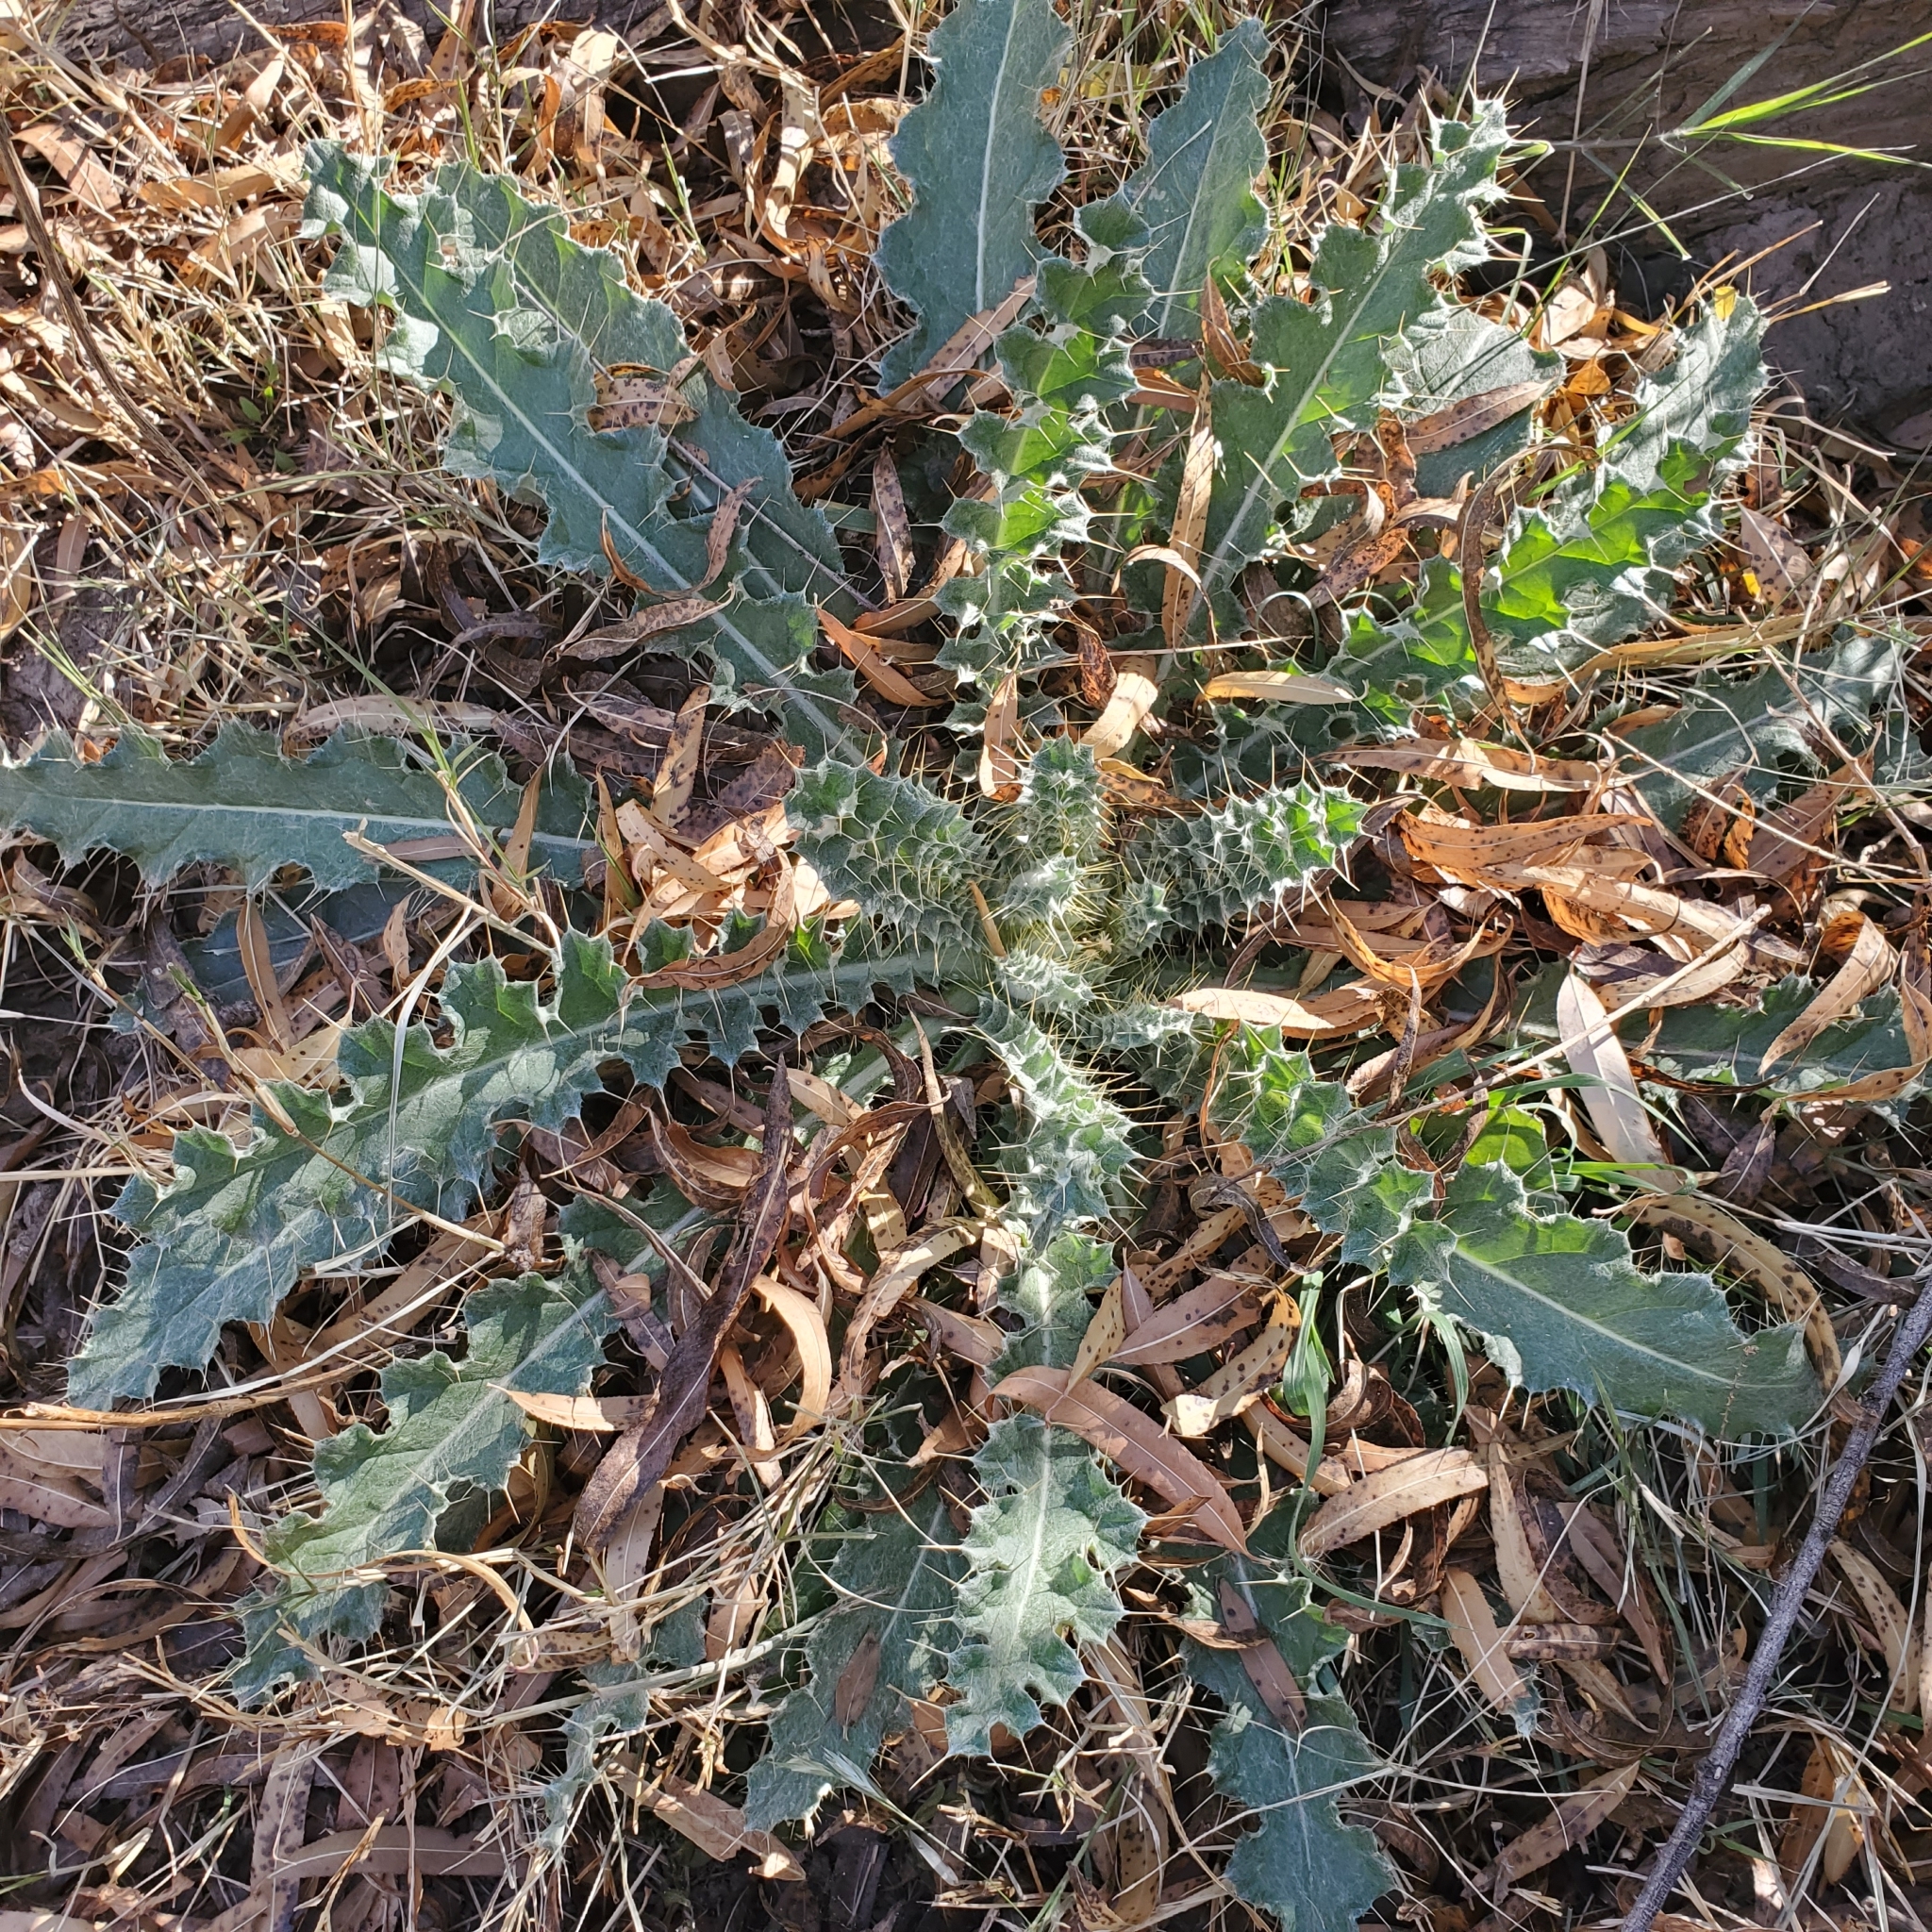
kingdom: Plantae
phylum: Tracheophyta
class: Magnoliopsida
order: Asterales
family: Asteraceae
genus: Cirsium
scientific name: Cirsium neomexicanum
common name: New mexico thistle
